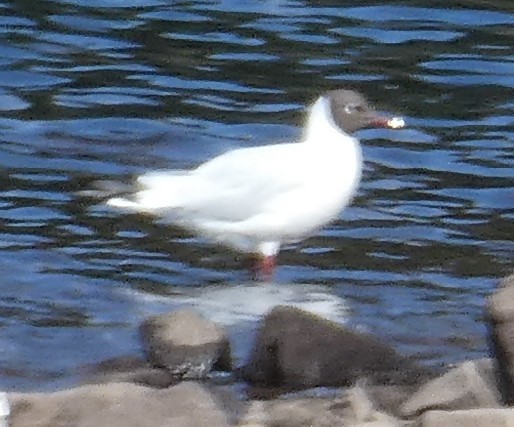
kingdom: Animalia
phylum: Chordata
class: Aves
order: Charadriiformes
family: Laridae
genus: Chroicocephalus
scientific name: Chroicocephalus ridibundus
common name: Black-headed gull
